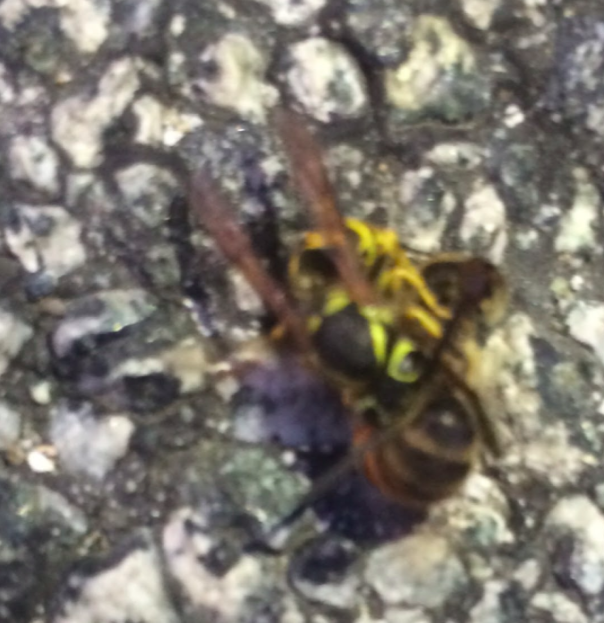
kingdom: Animalia
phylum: Arthropoda
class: Insecta
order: Hymenoptera
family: Vespidae
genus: Vespula
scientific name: Vespula pensylvanica
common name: Western yellowjacket
